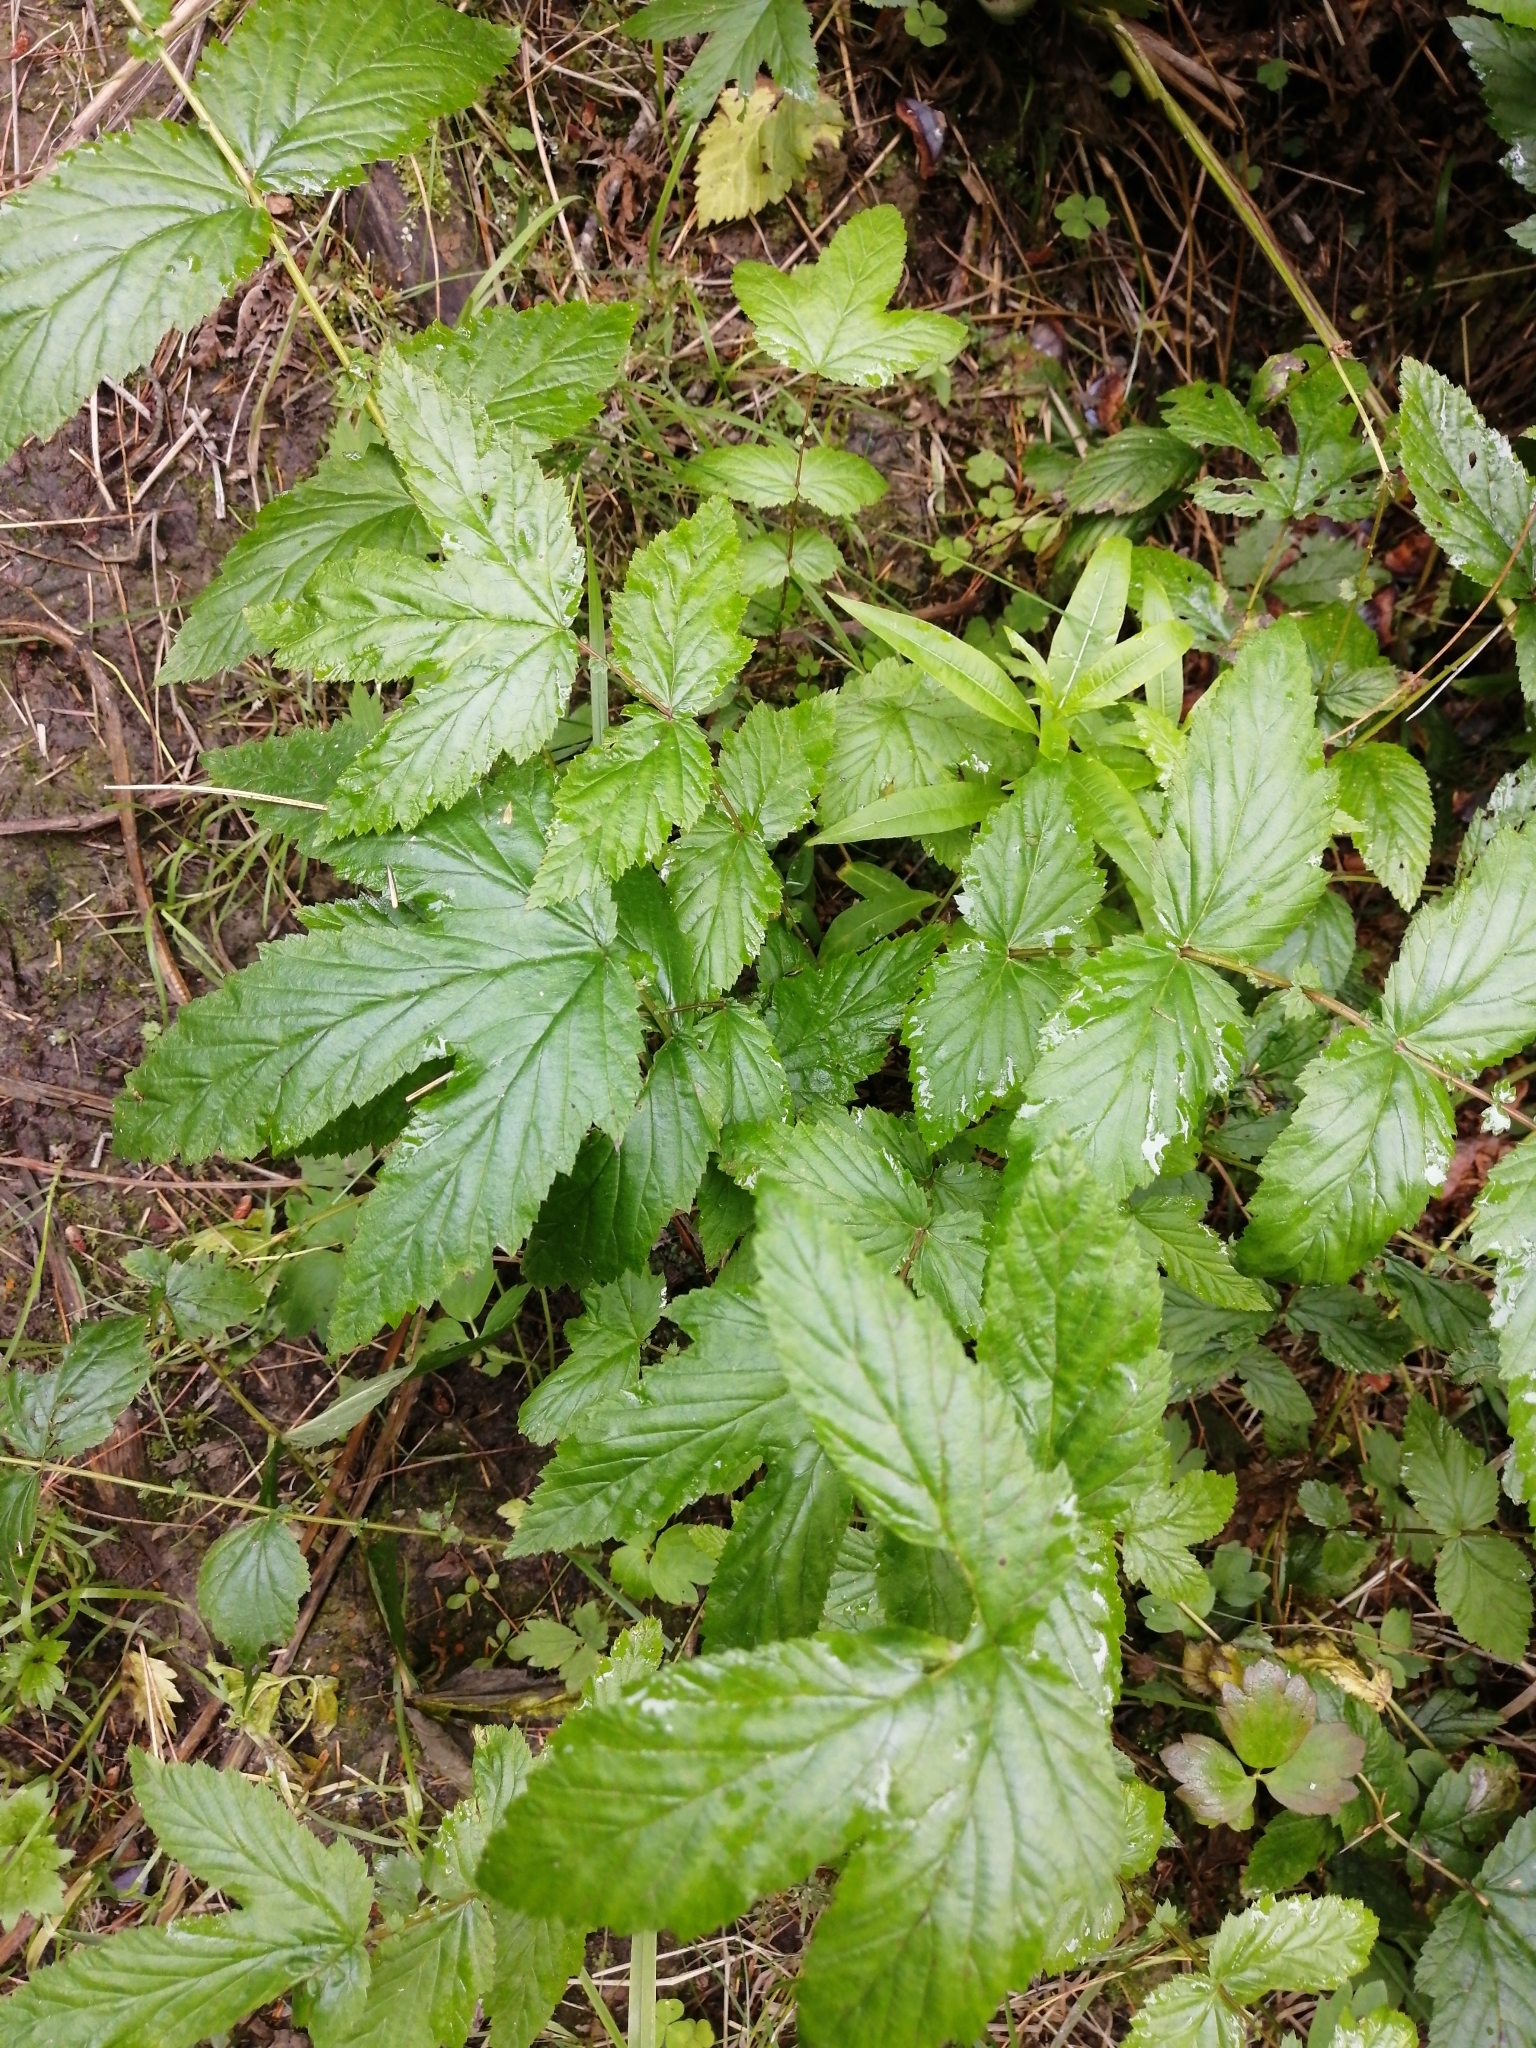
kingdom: Plantae
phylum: Tracheophyta
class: Magnoliopsida
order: Rosales
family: Rosaceae
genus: Filipendula
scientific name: Filipendula ulmaria
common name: Meadowsweet
